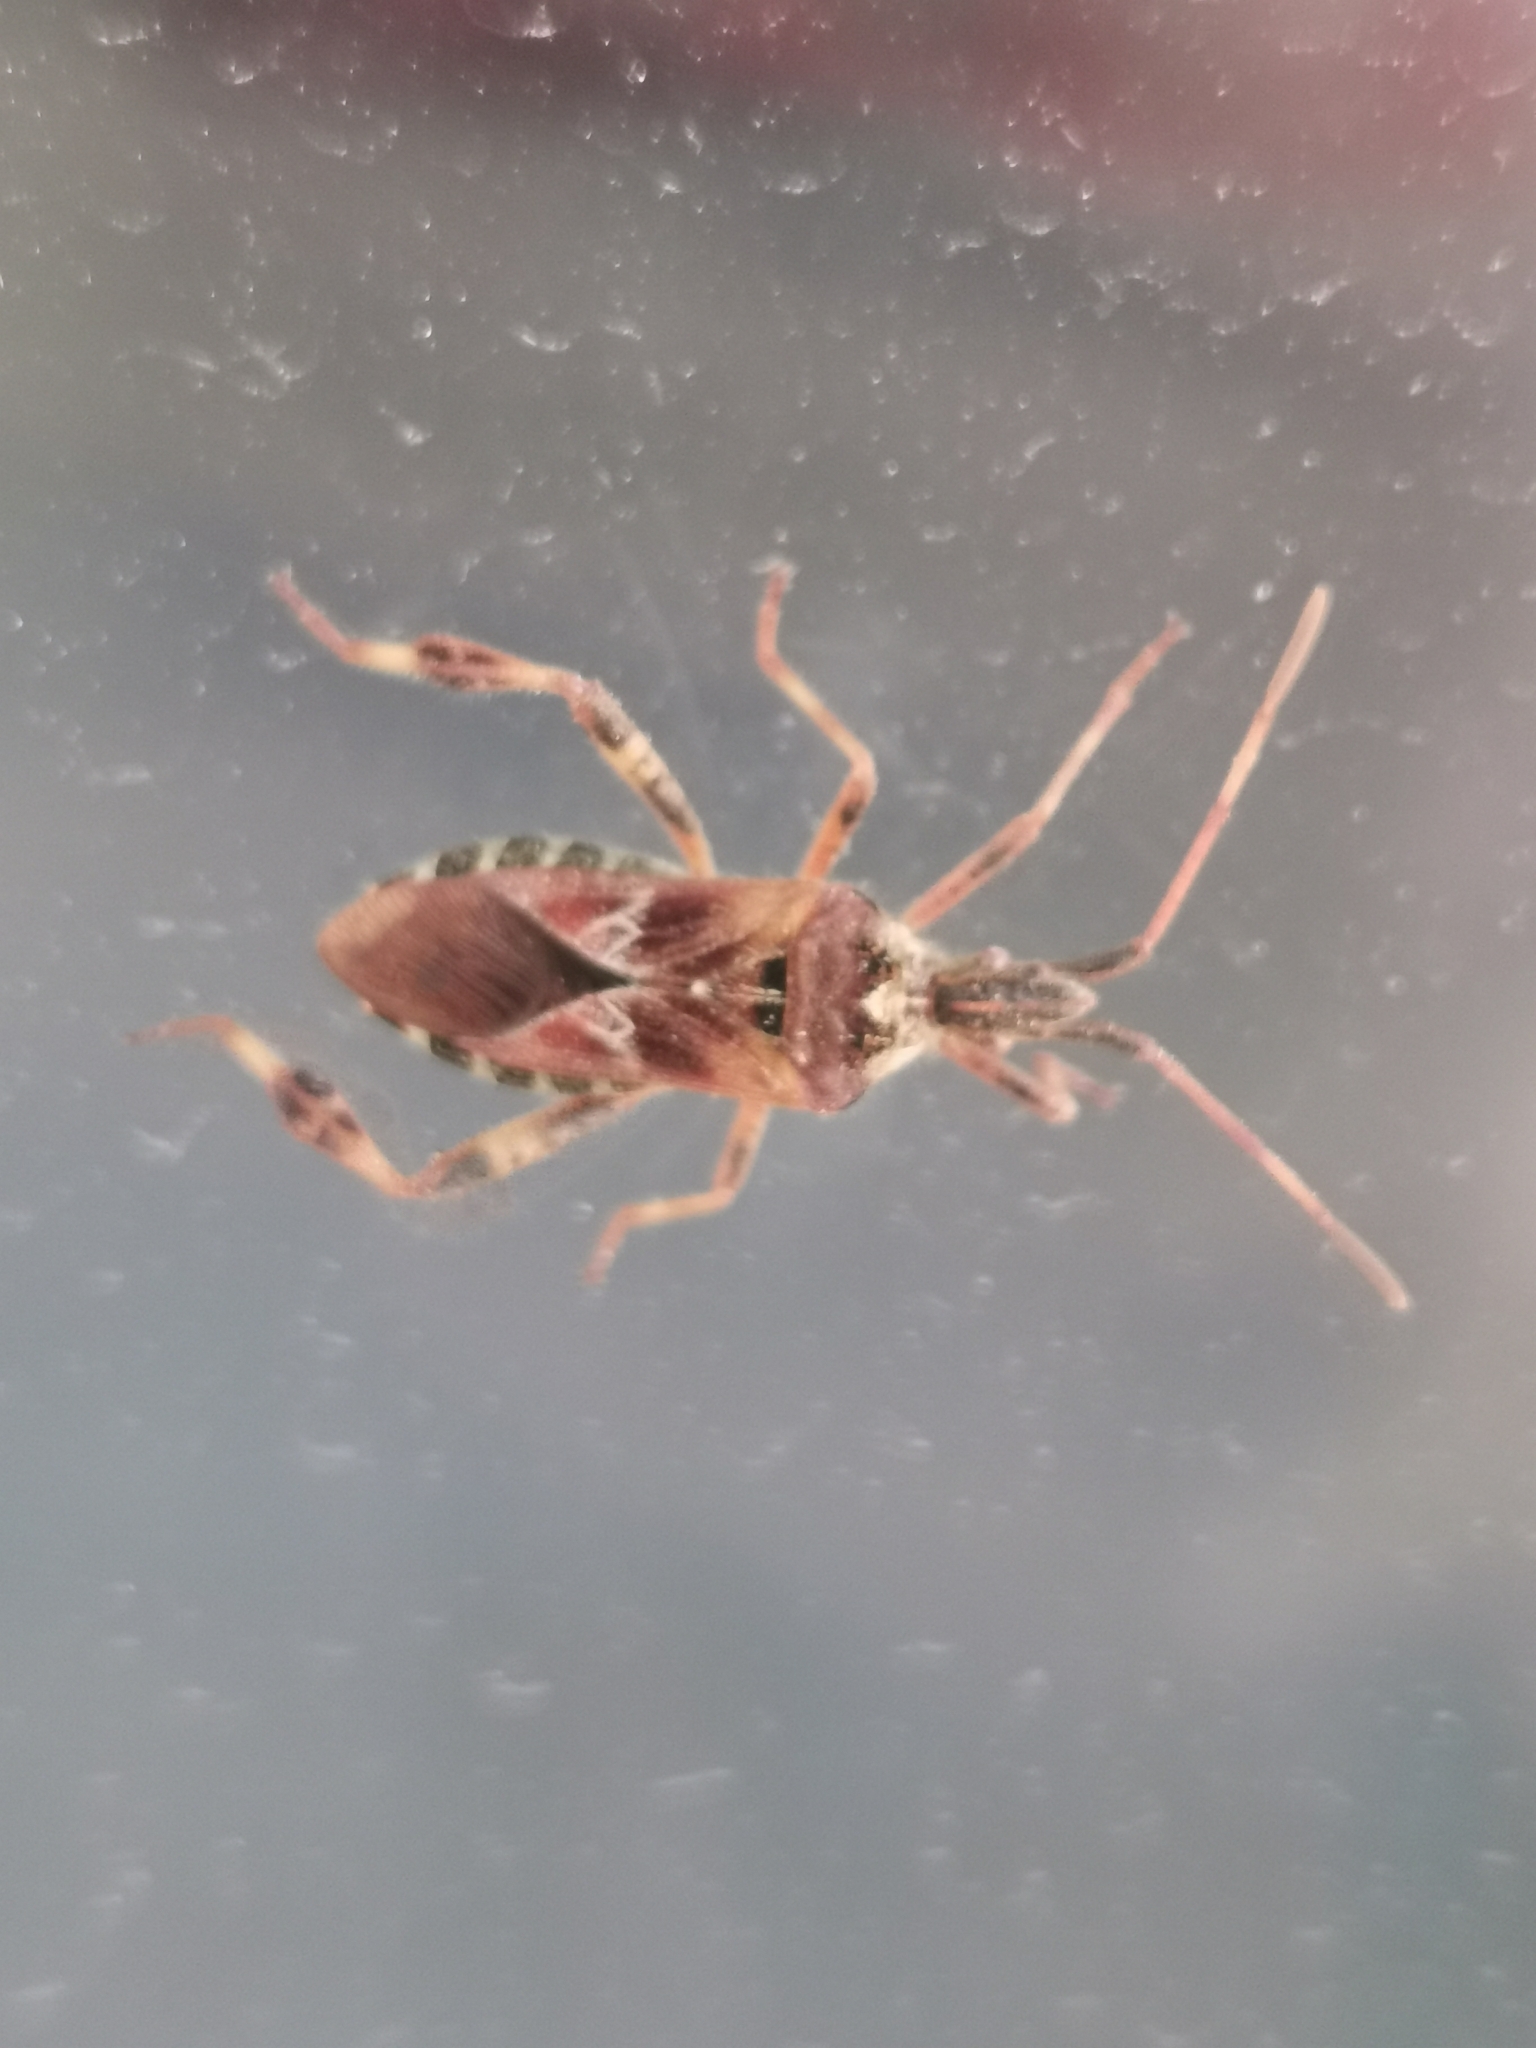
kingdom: Animalia
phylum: Arthropoda
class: Insecta
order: Hemiptera
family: Coreidae
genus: Leptoglossus
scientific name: Leptoglossus occidentalis
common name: Western conifer-seed bug
